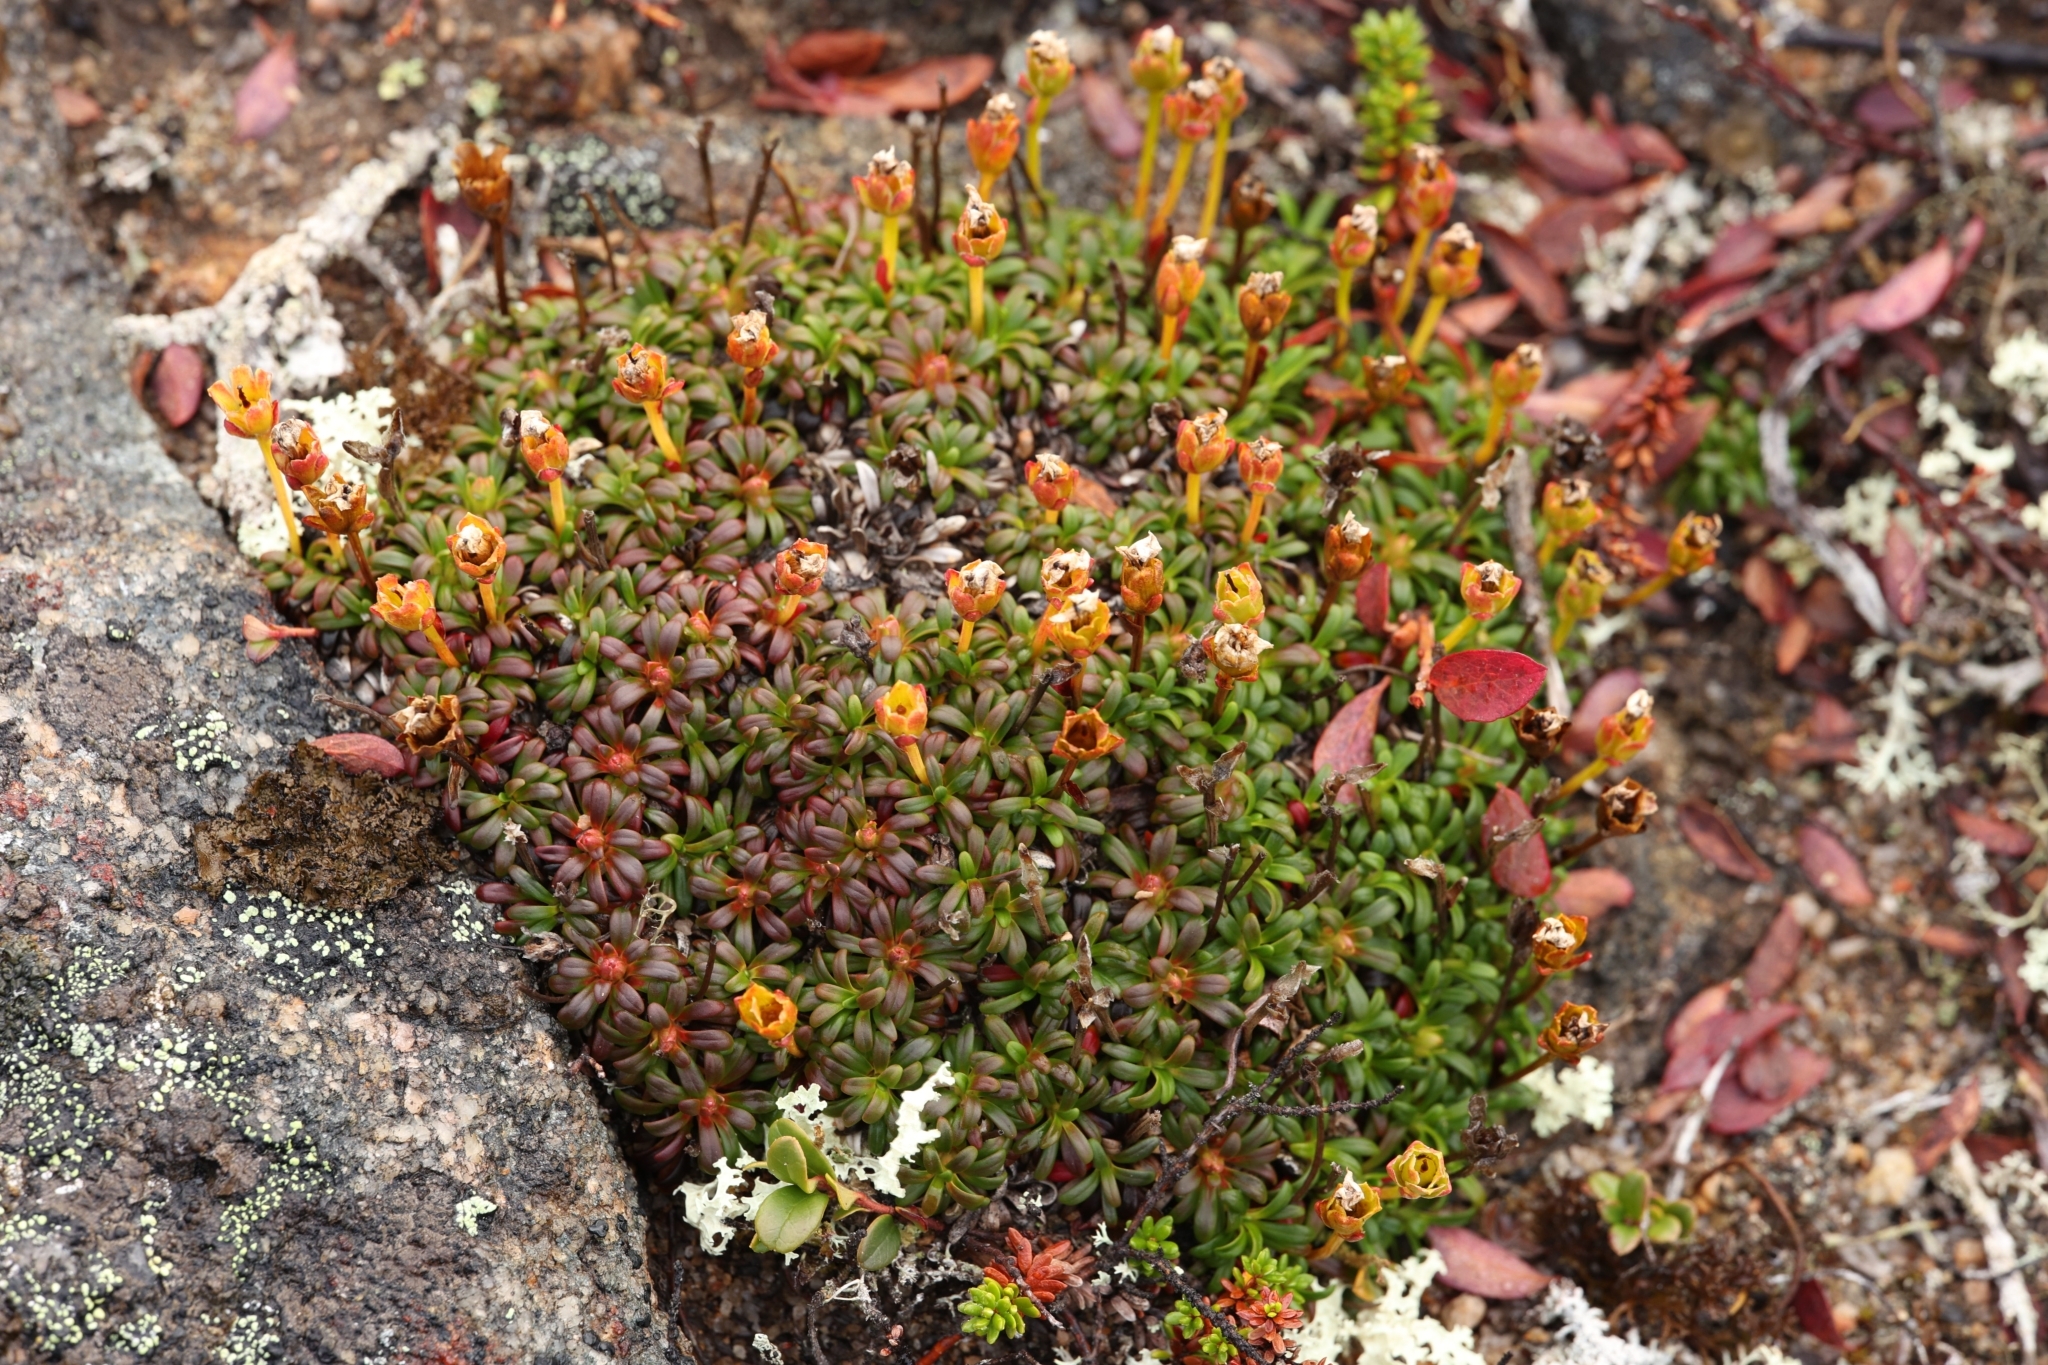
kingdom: Plantae
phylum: Tracheophyta
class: Magnoliopsida
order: Ericales
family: Diapensiaceae
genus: Diapensia
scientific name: Diapensia lapponica
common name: Diapensia
